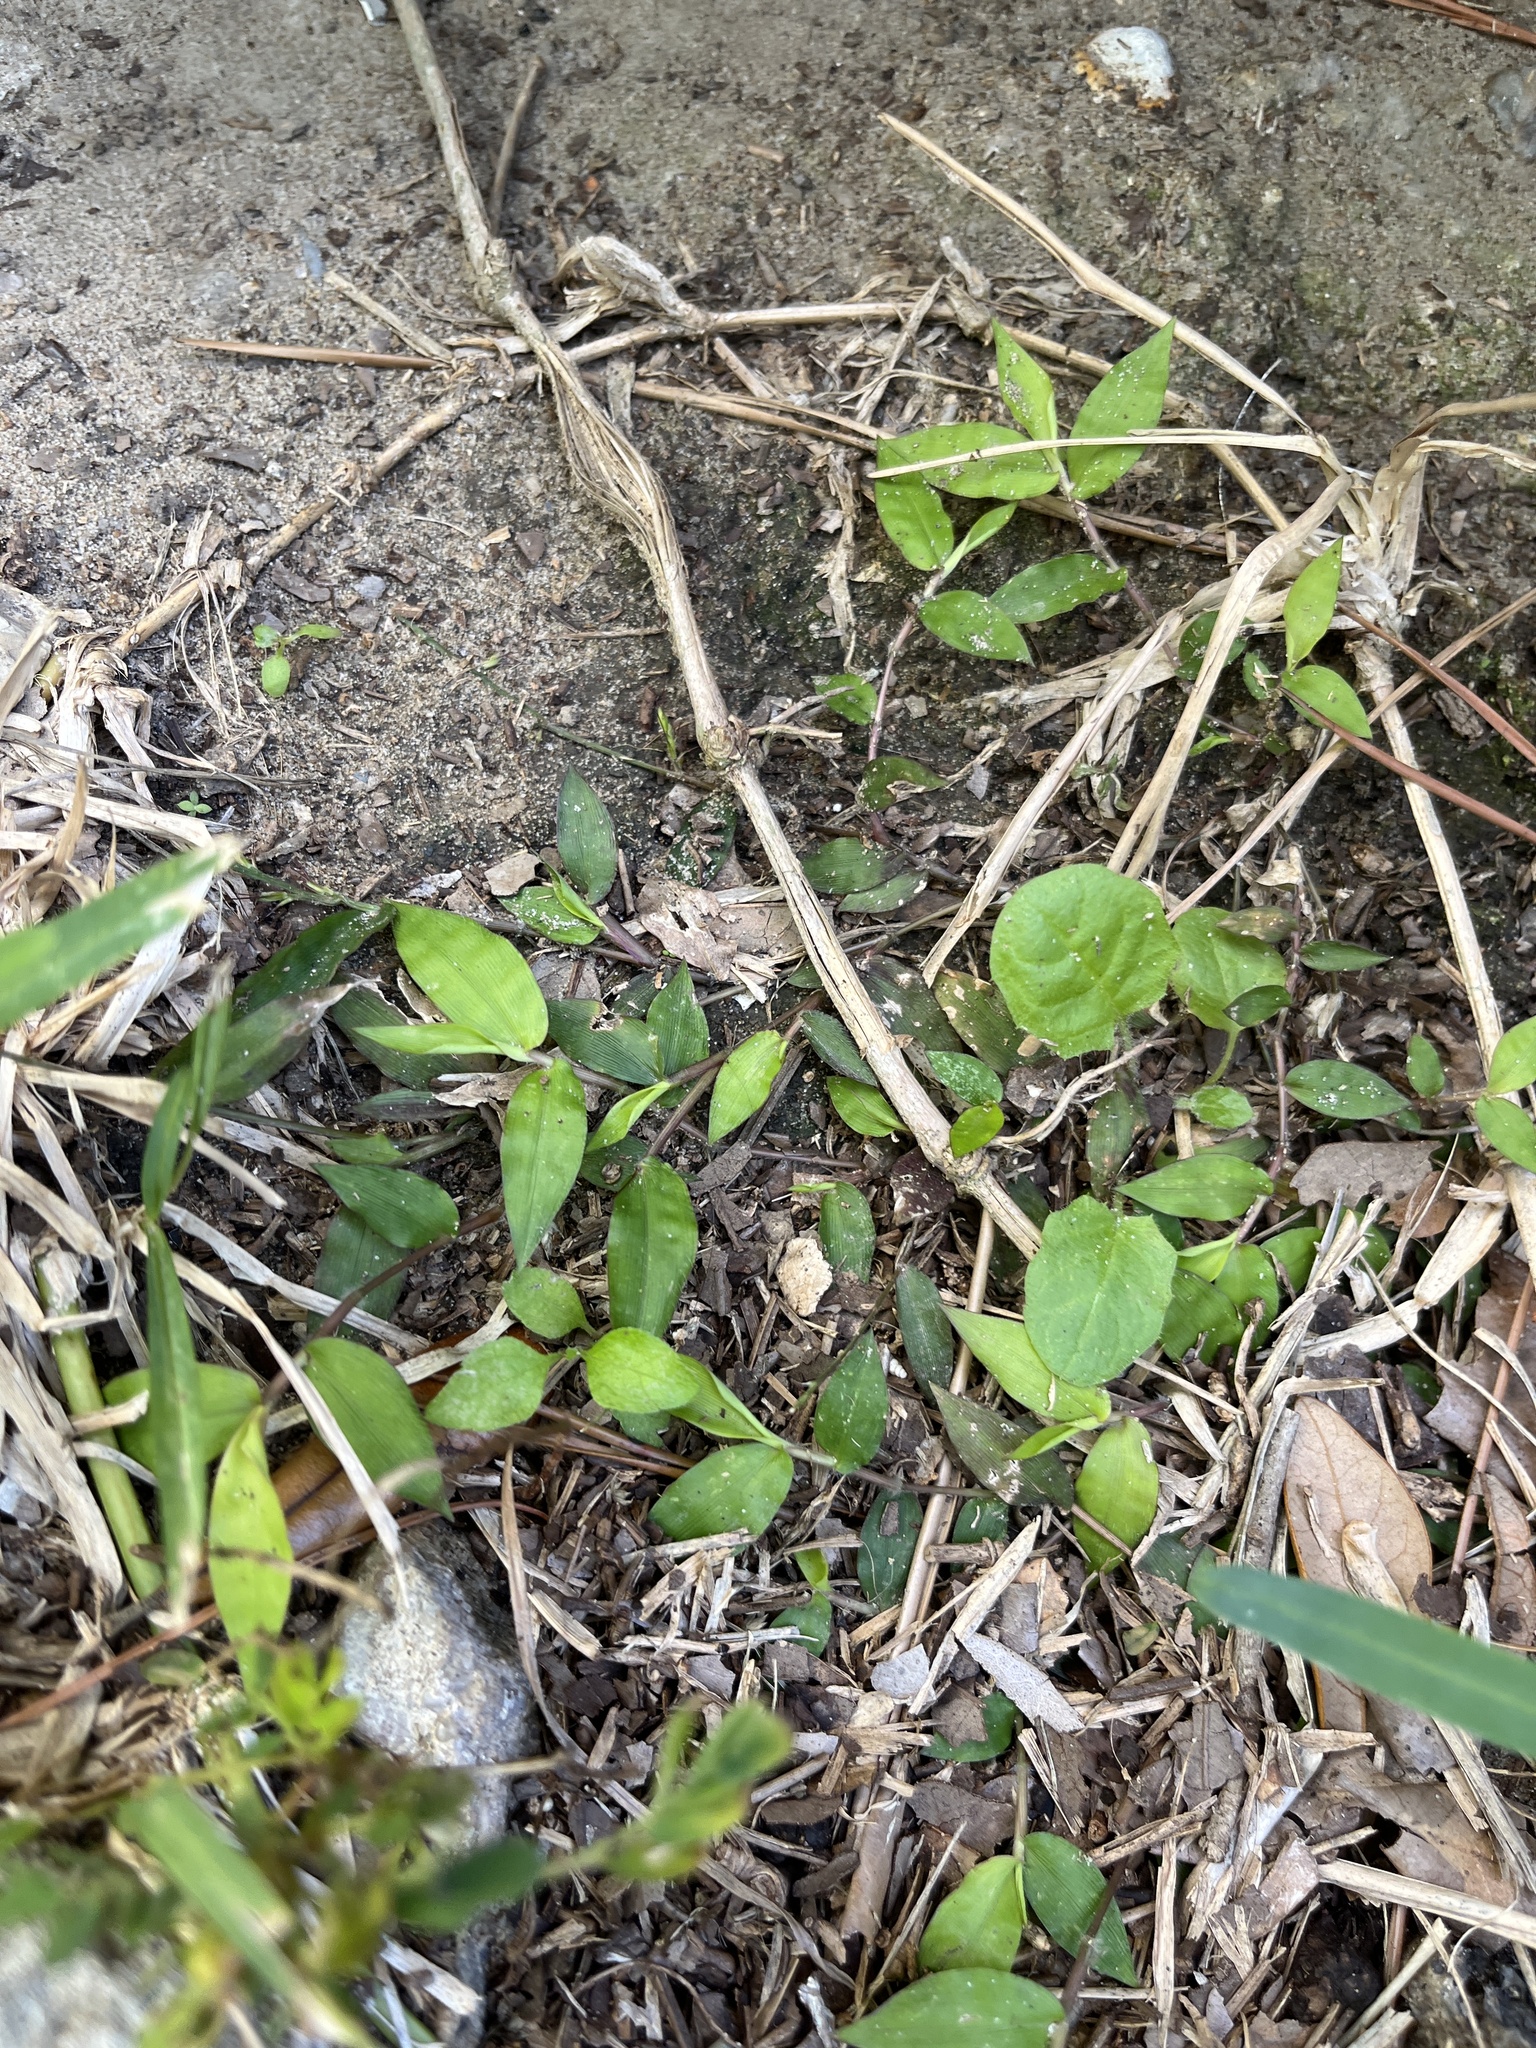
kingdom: Plantae
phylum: Tracheophyta
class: Liliopsida
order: Poales
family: Poaceae
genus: Oplismenus
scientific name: Oplismenus hirtellus
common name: Basketgrass
